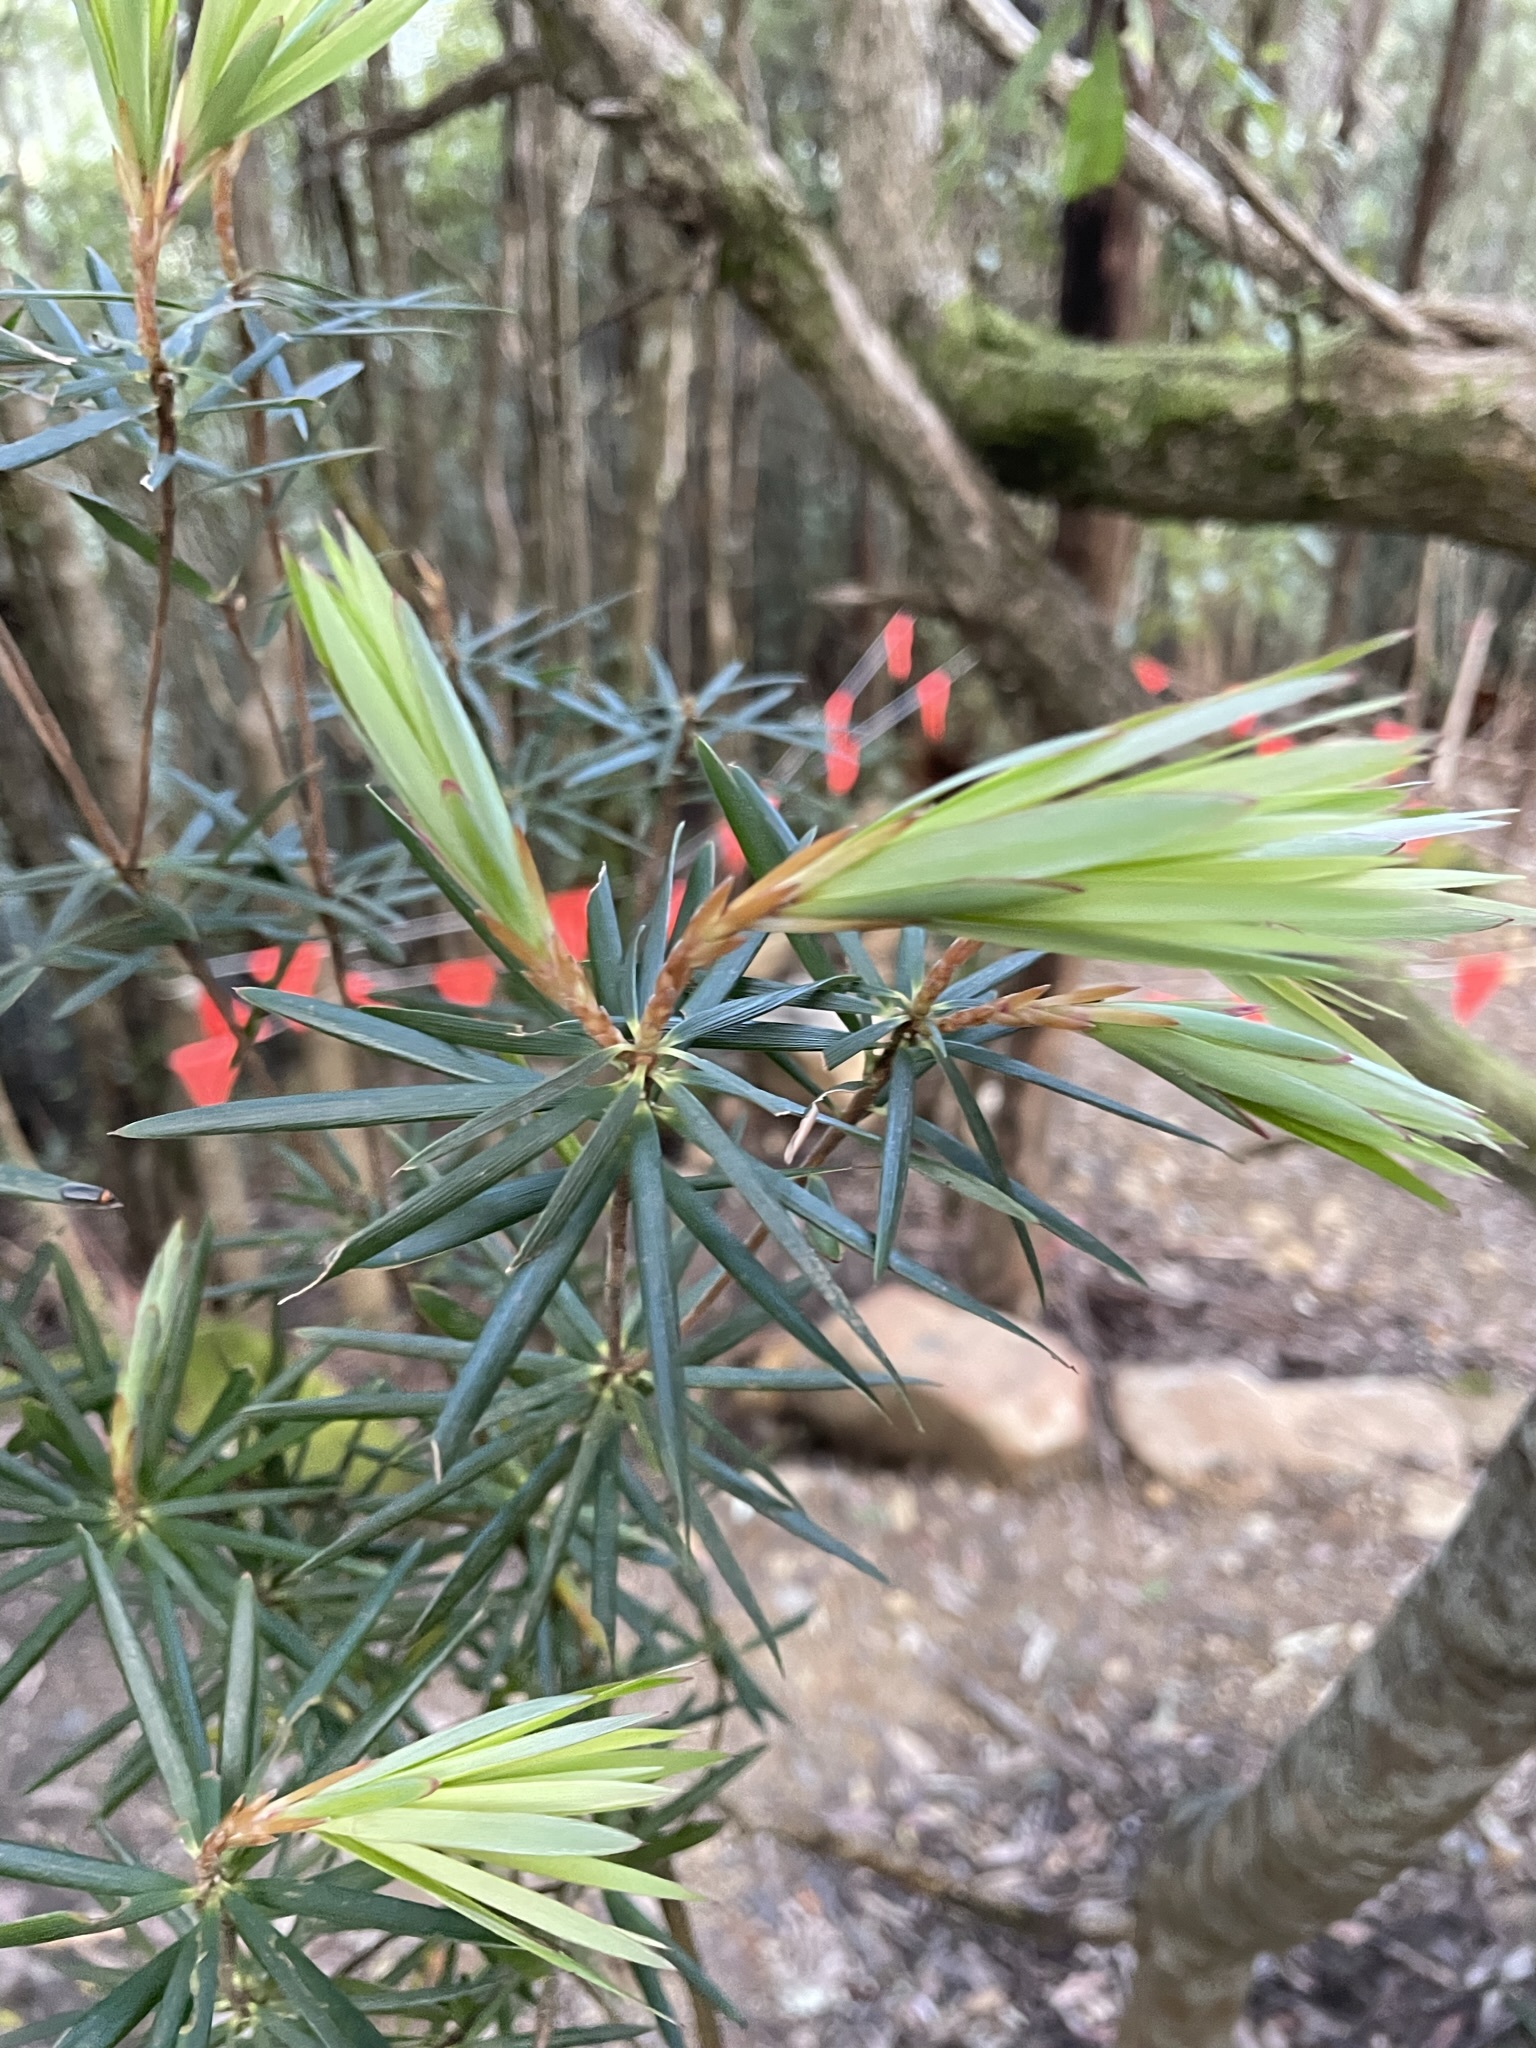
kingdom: Plantae
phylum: Tracheophyta
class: Magnoliopsida
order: Ericales
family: Ericaceae
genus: Cyathodes
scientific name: Cyathodes glauca
